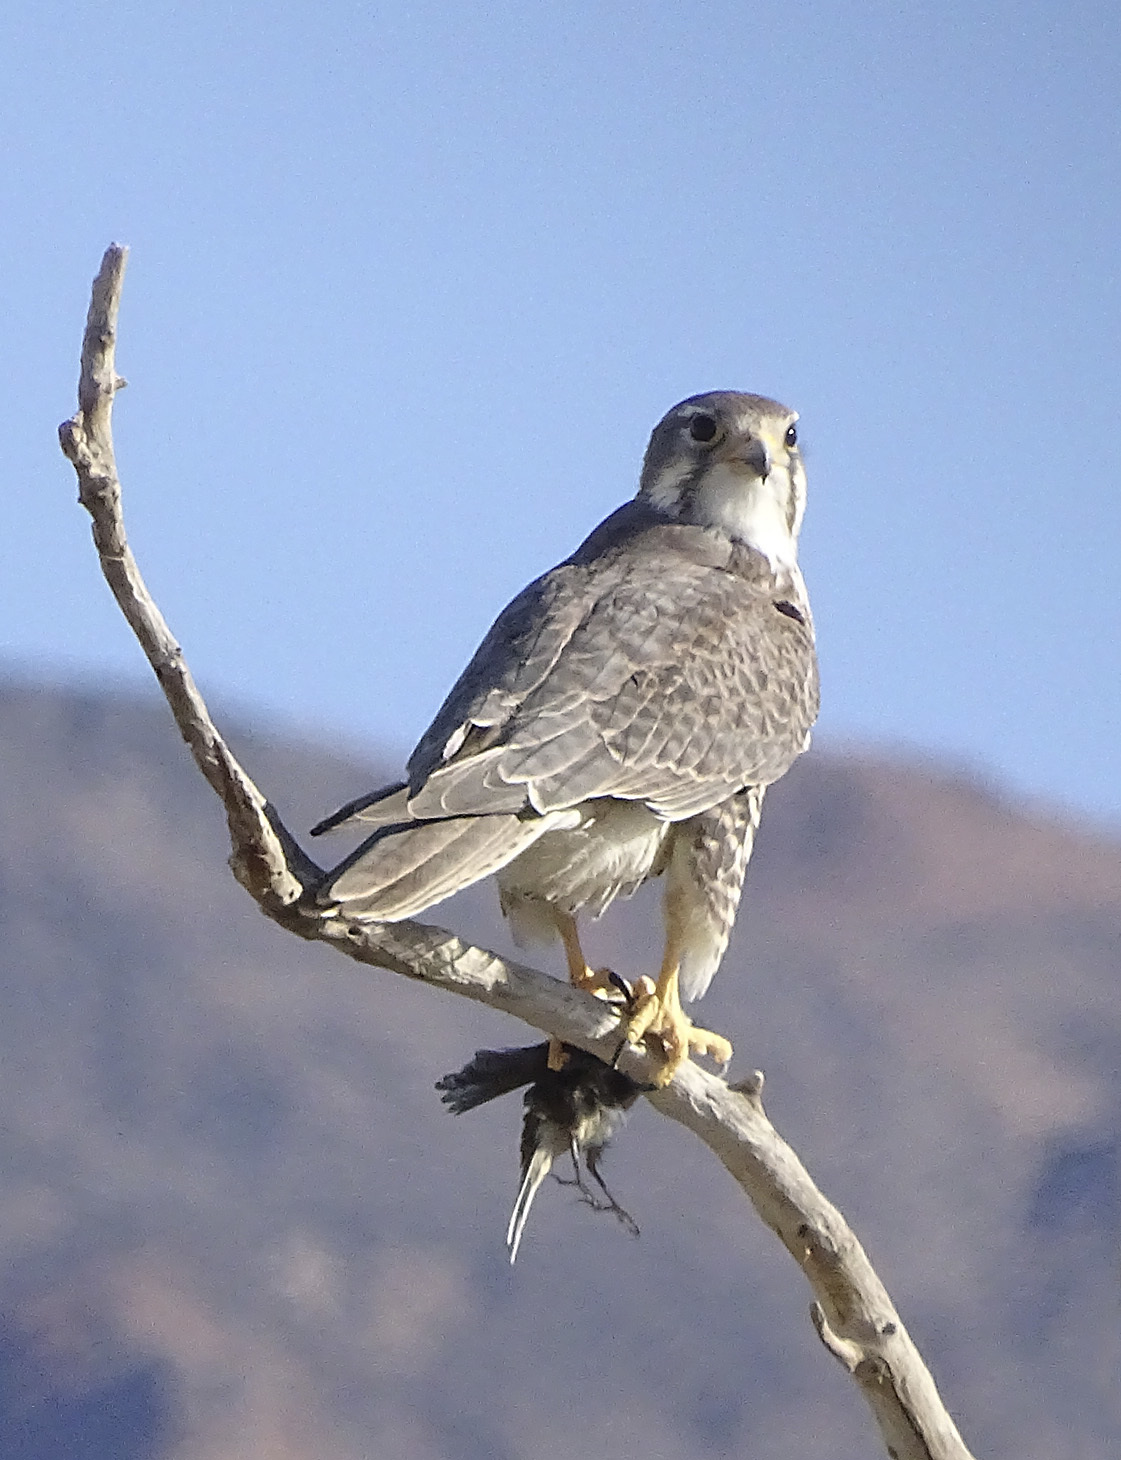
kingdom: Animalia
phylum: Chordata
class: Aves
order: Falconiformes
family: Falconidae
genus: Falco
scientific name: Falco mexicanus
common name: Prairie falcon
